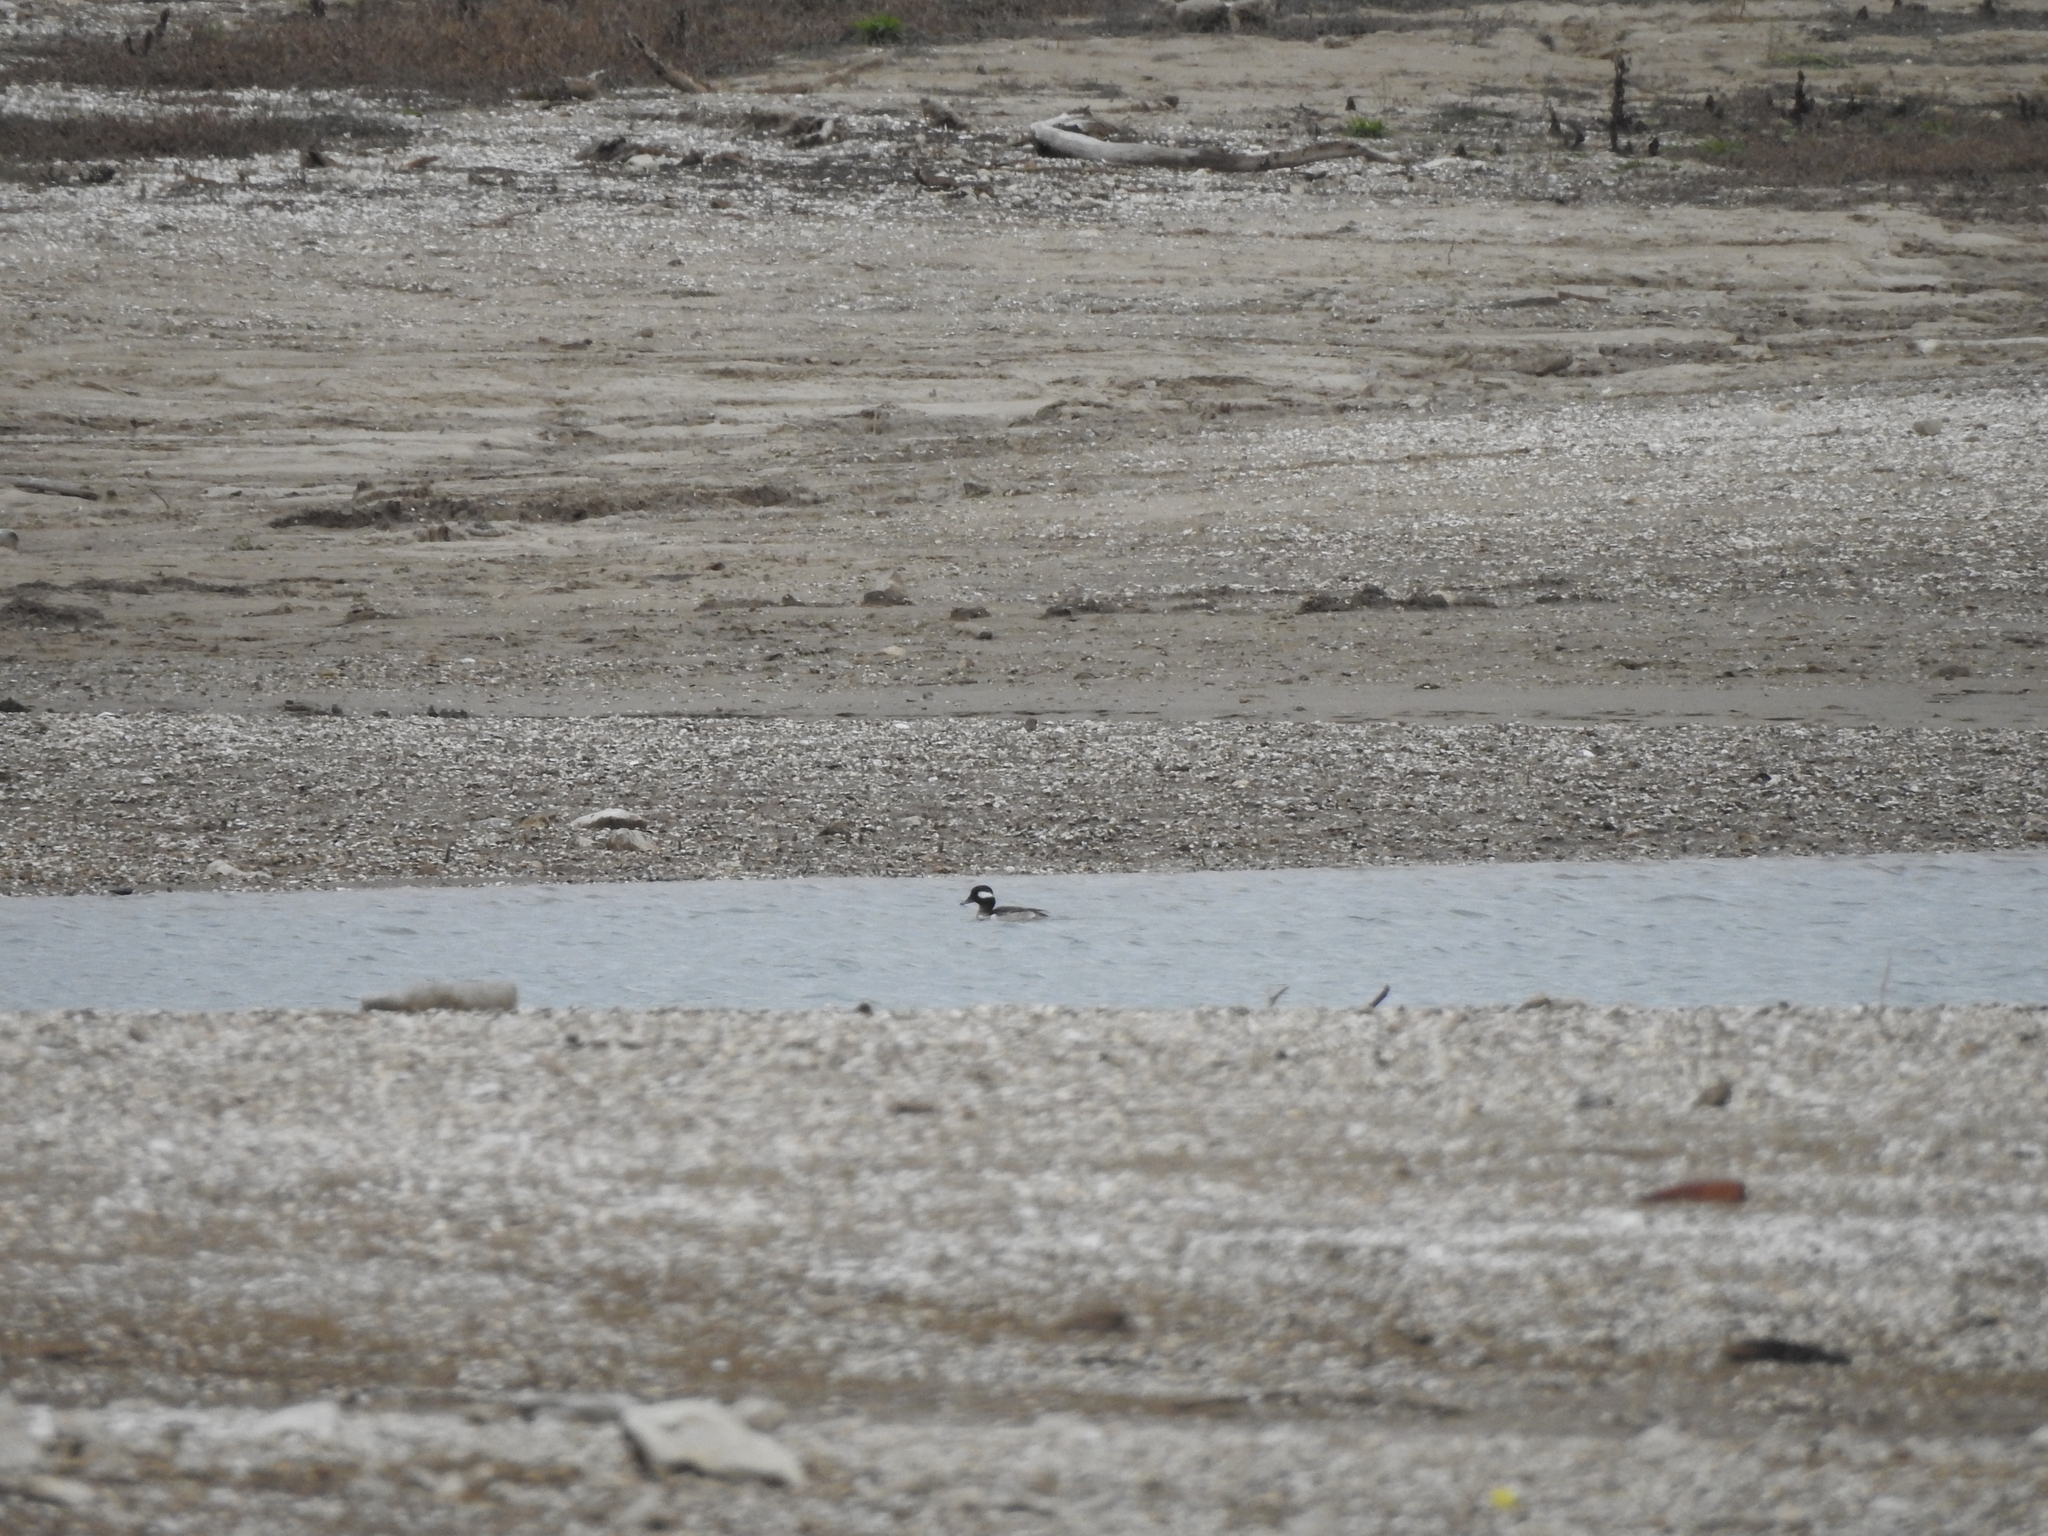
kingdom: Animalia
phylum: Chordata
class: Aves
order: Anseriformes
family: Anatidae
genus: Bucephala
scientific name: Bucephala albeola
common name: Bufflehead
